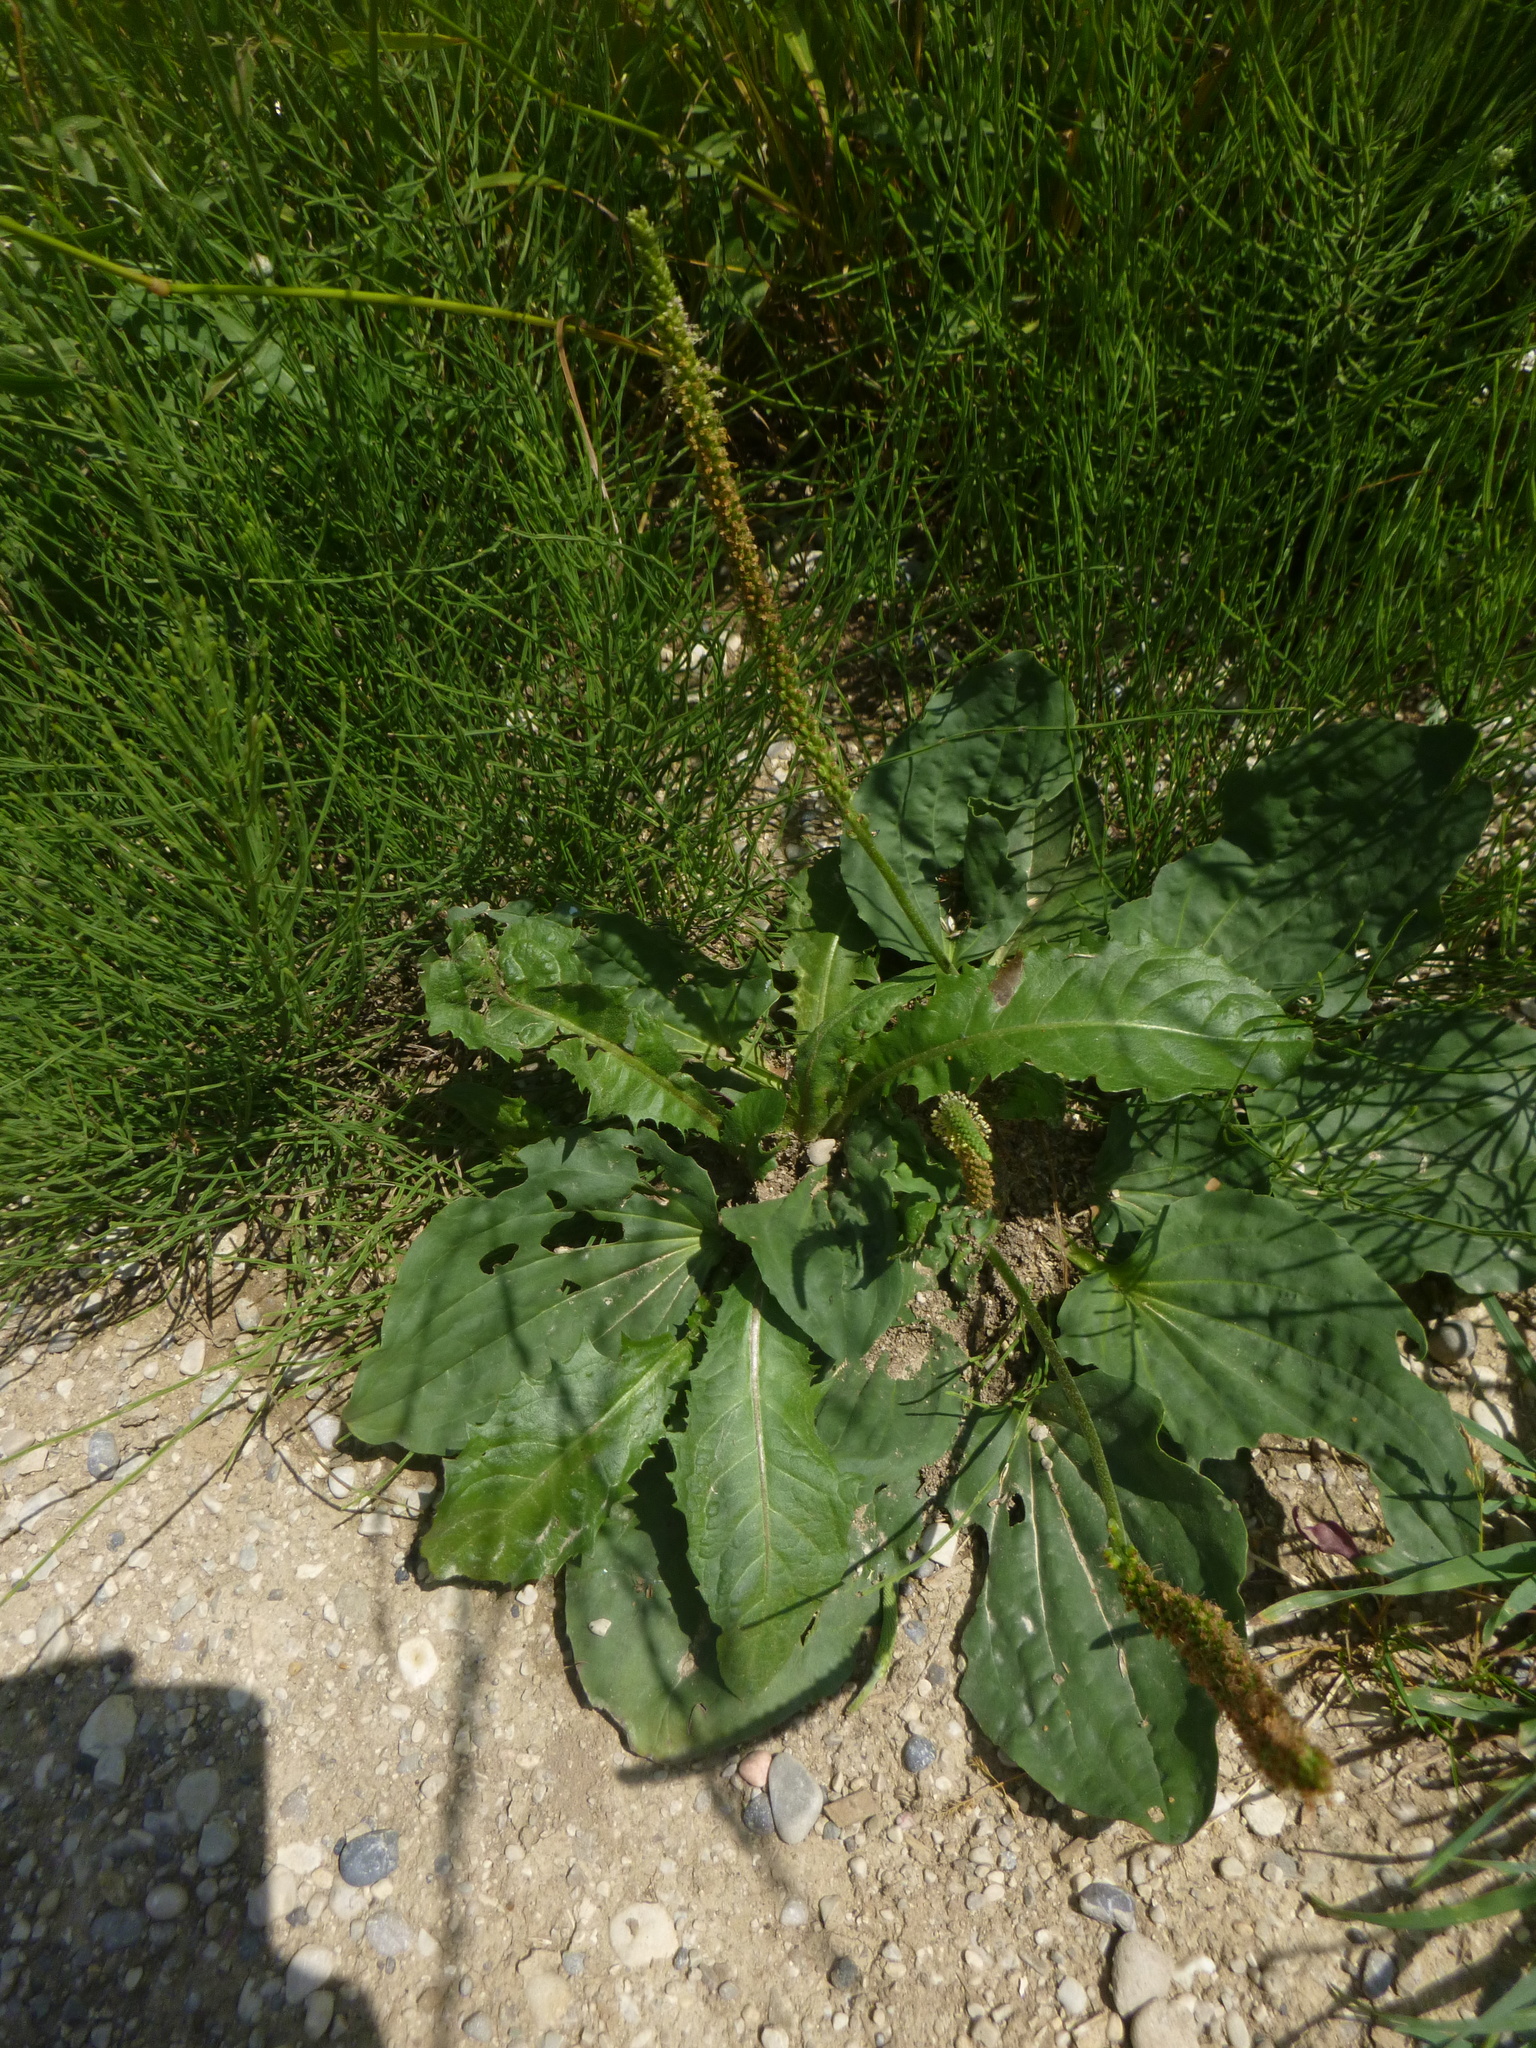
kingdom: Plantae
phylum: Tracheophyta
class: Magnoliopsida
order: Lamiales
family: Plantaginaceae
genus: Plantago
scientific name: Plantago major
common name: Common plantain
